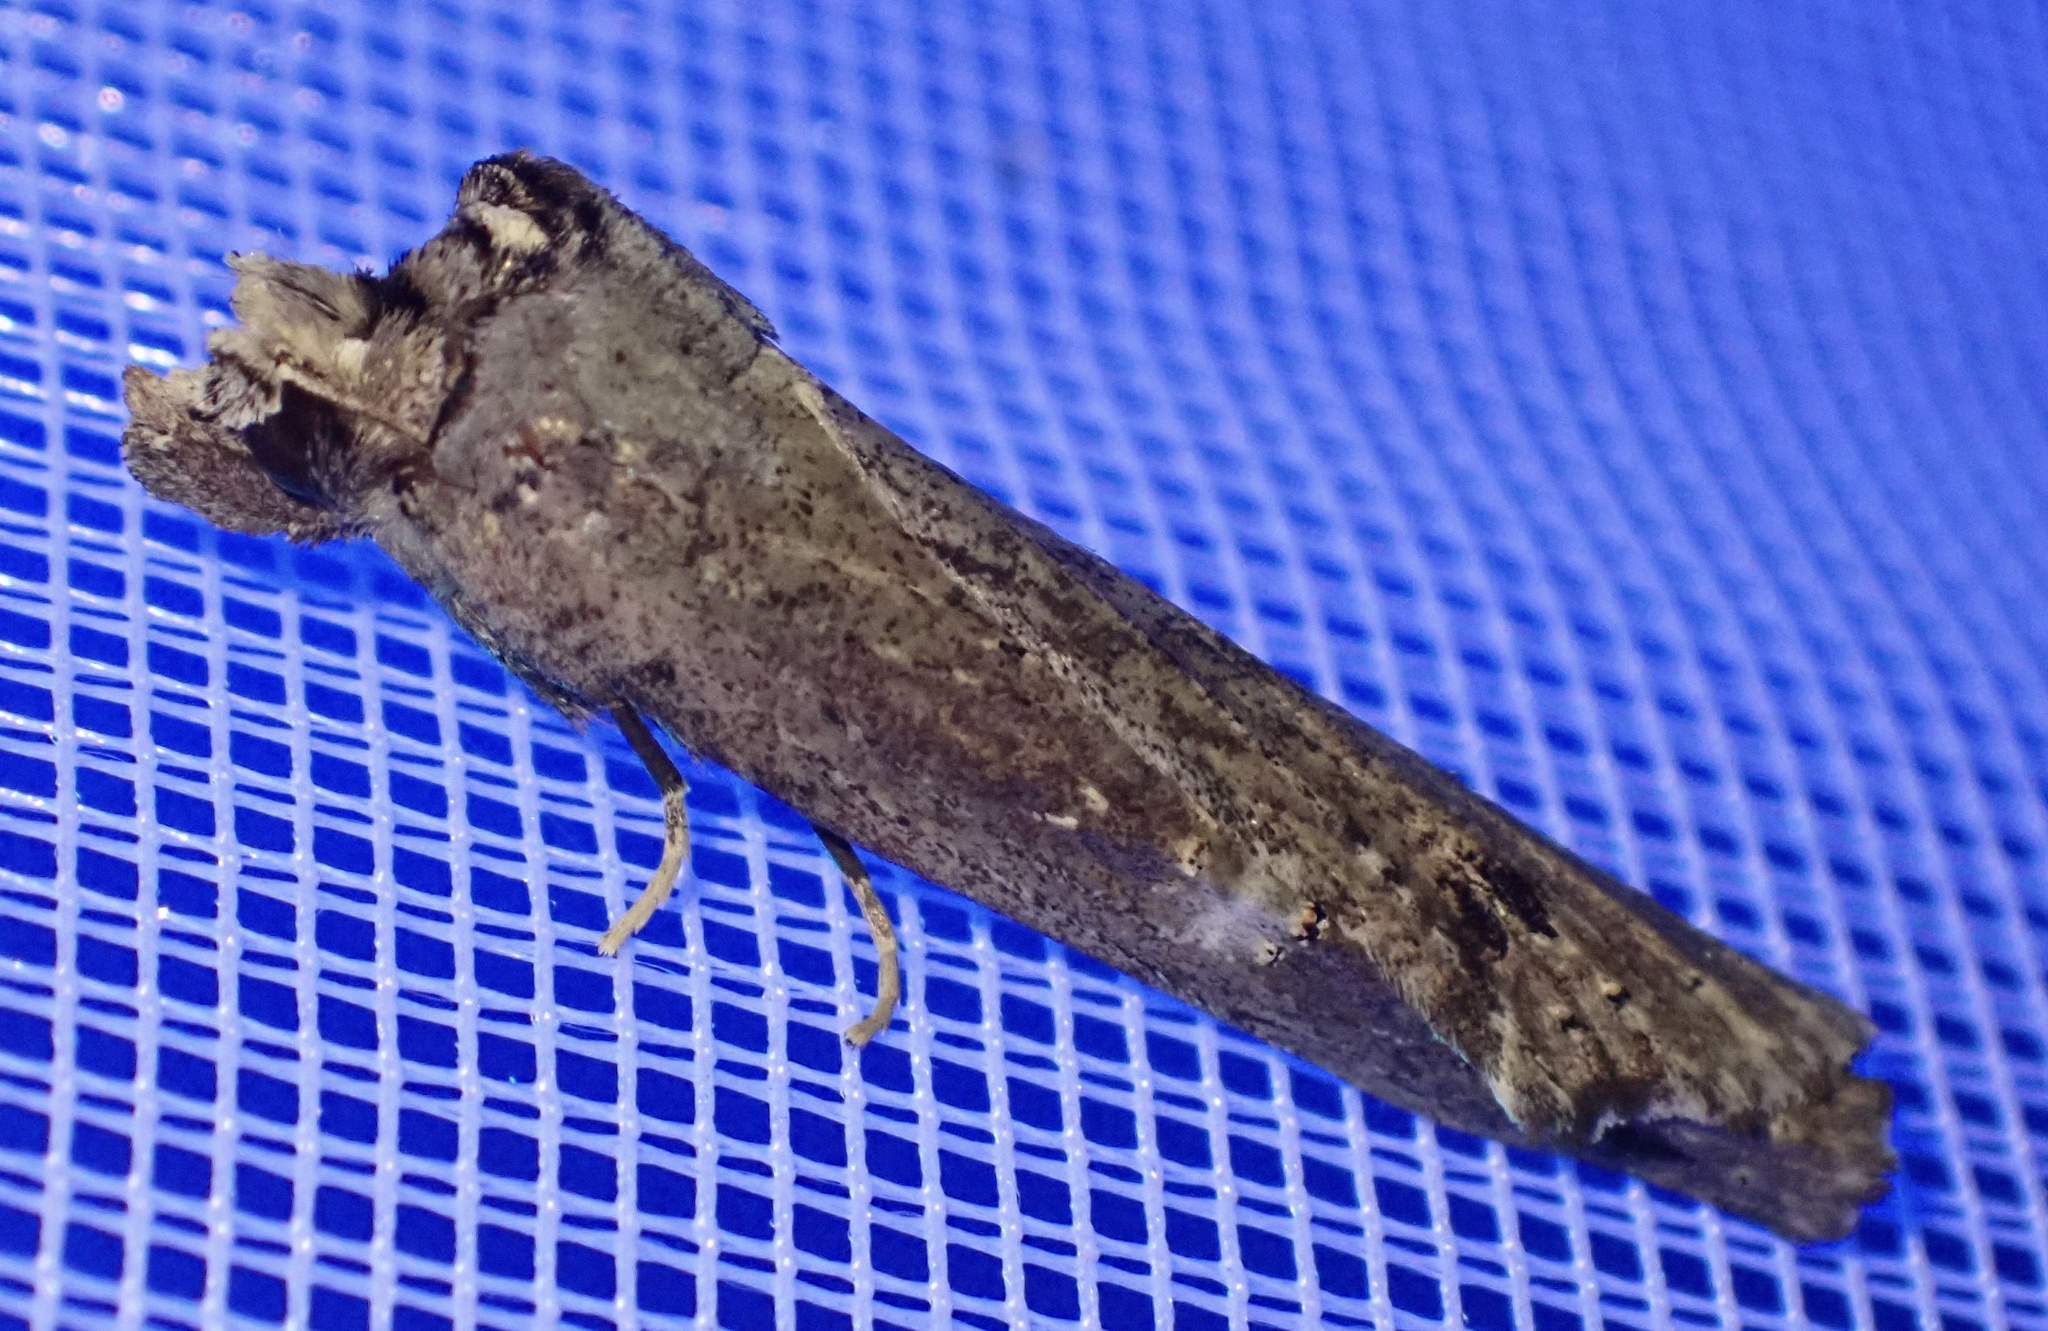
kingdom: Animalia
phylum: Arthropoda
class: Insecta
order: Lepidoptera
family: Notodontidae
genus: Ortholomia
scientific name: Ortholomia moluccana
